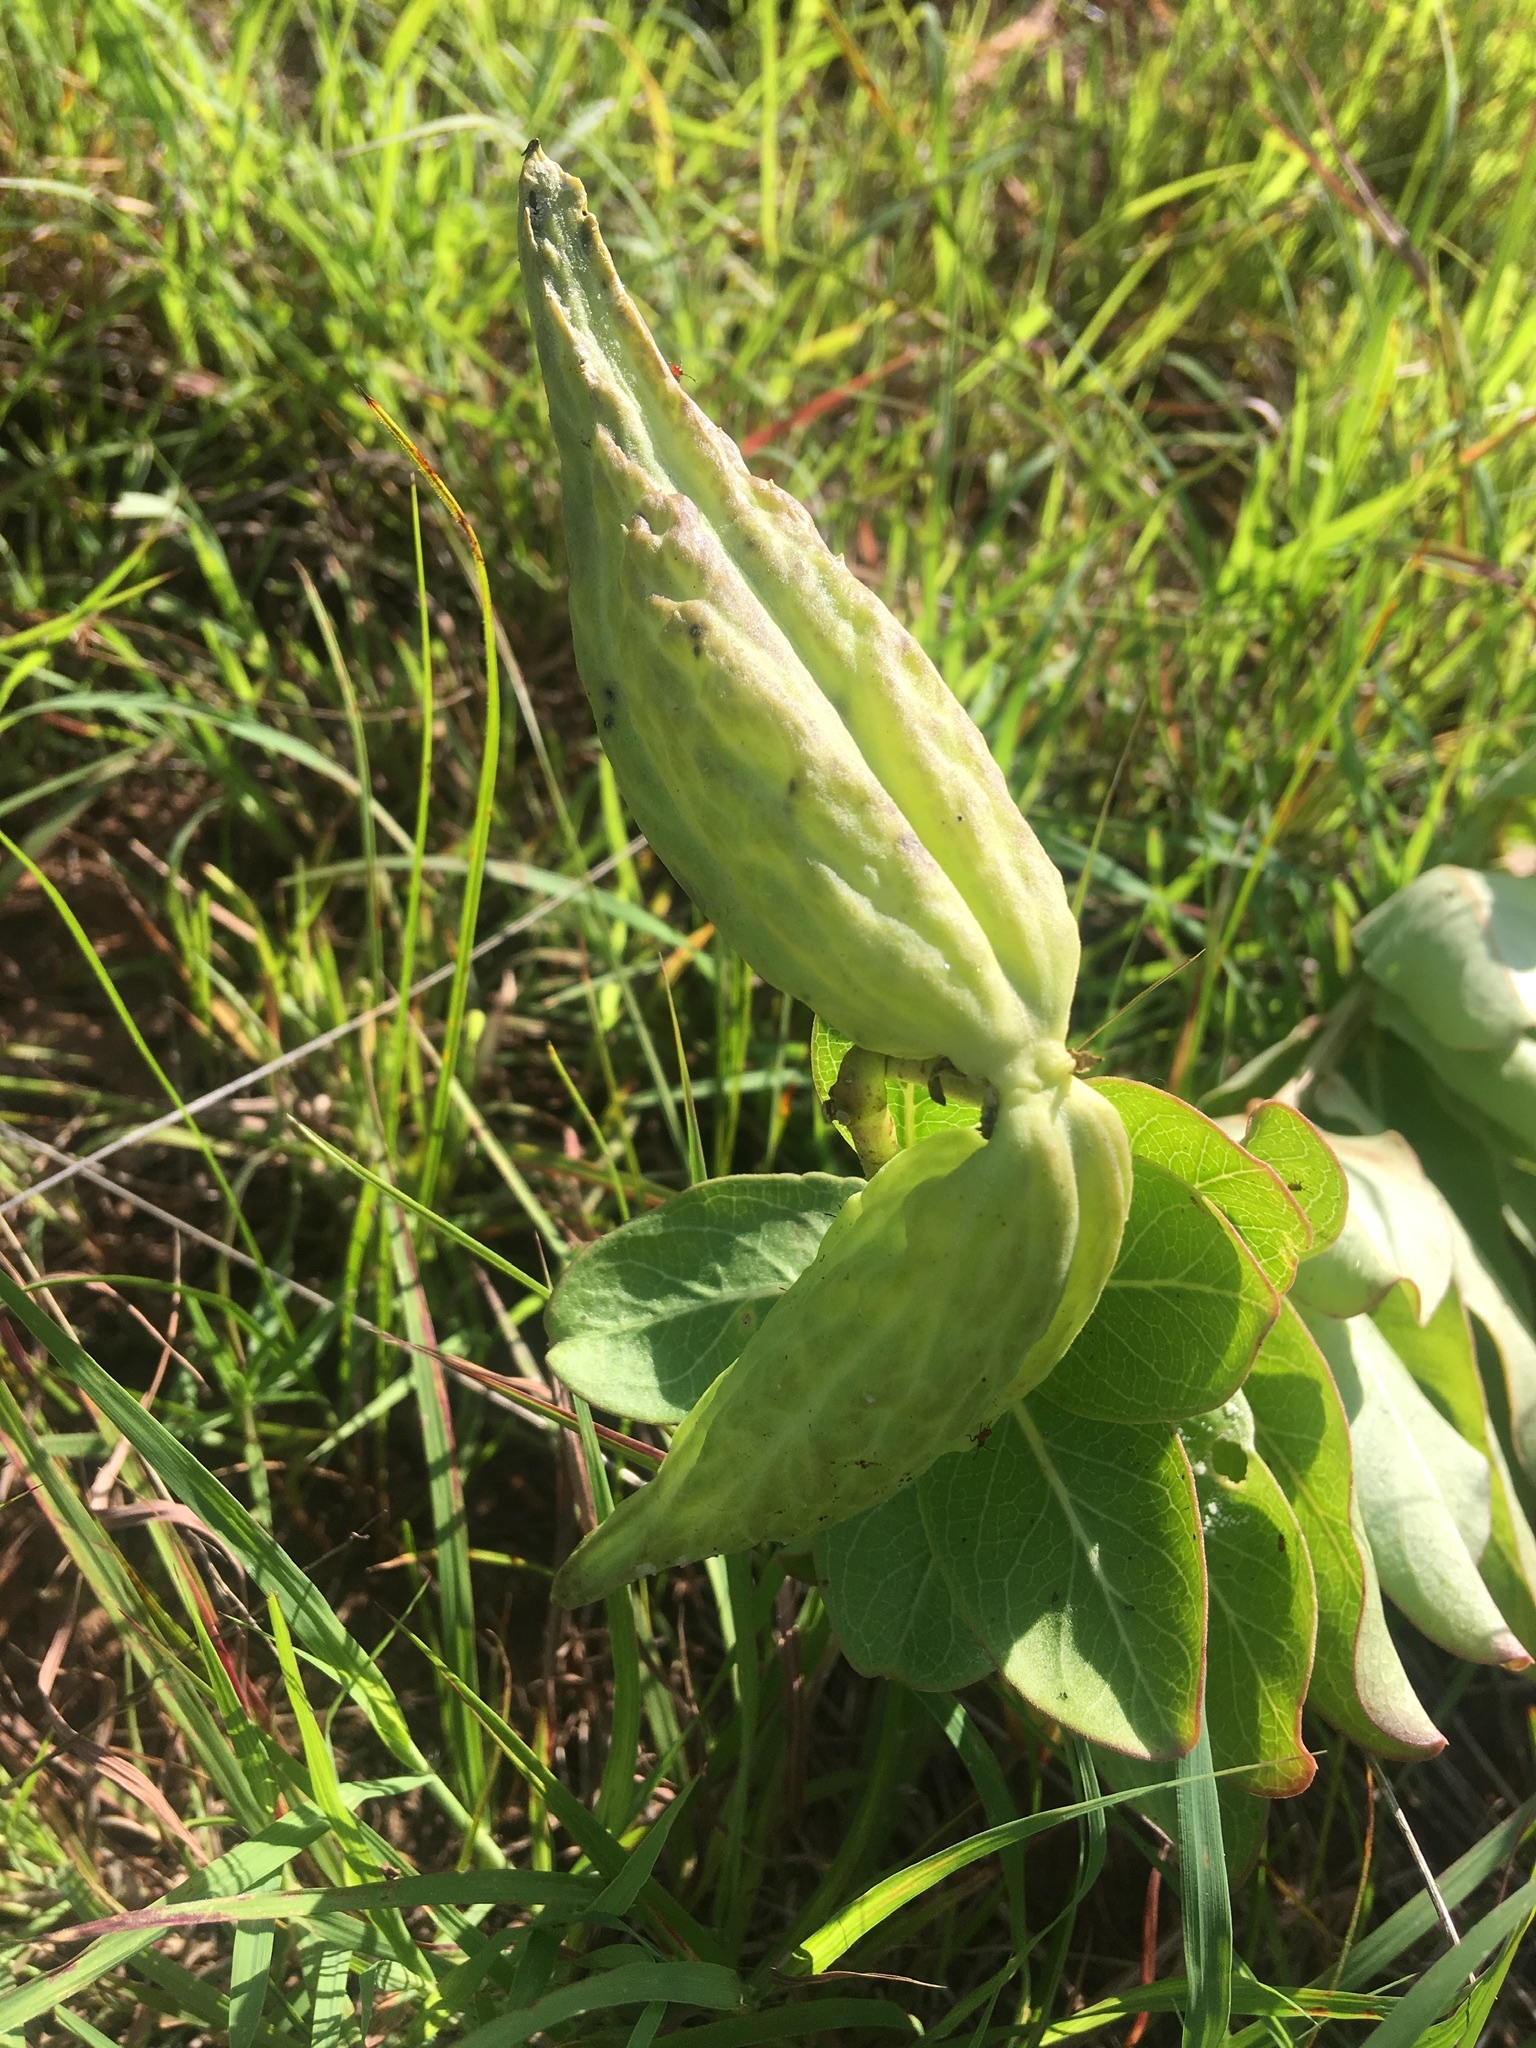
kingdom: Plantae
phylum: Tracheophyta
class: Magnoliopsida
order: Gentianales
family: Apocynaceae
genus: Asclepias
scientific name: Asclepias viridis
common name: Antelope-horns
